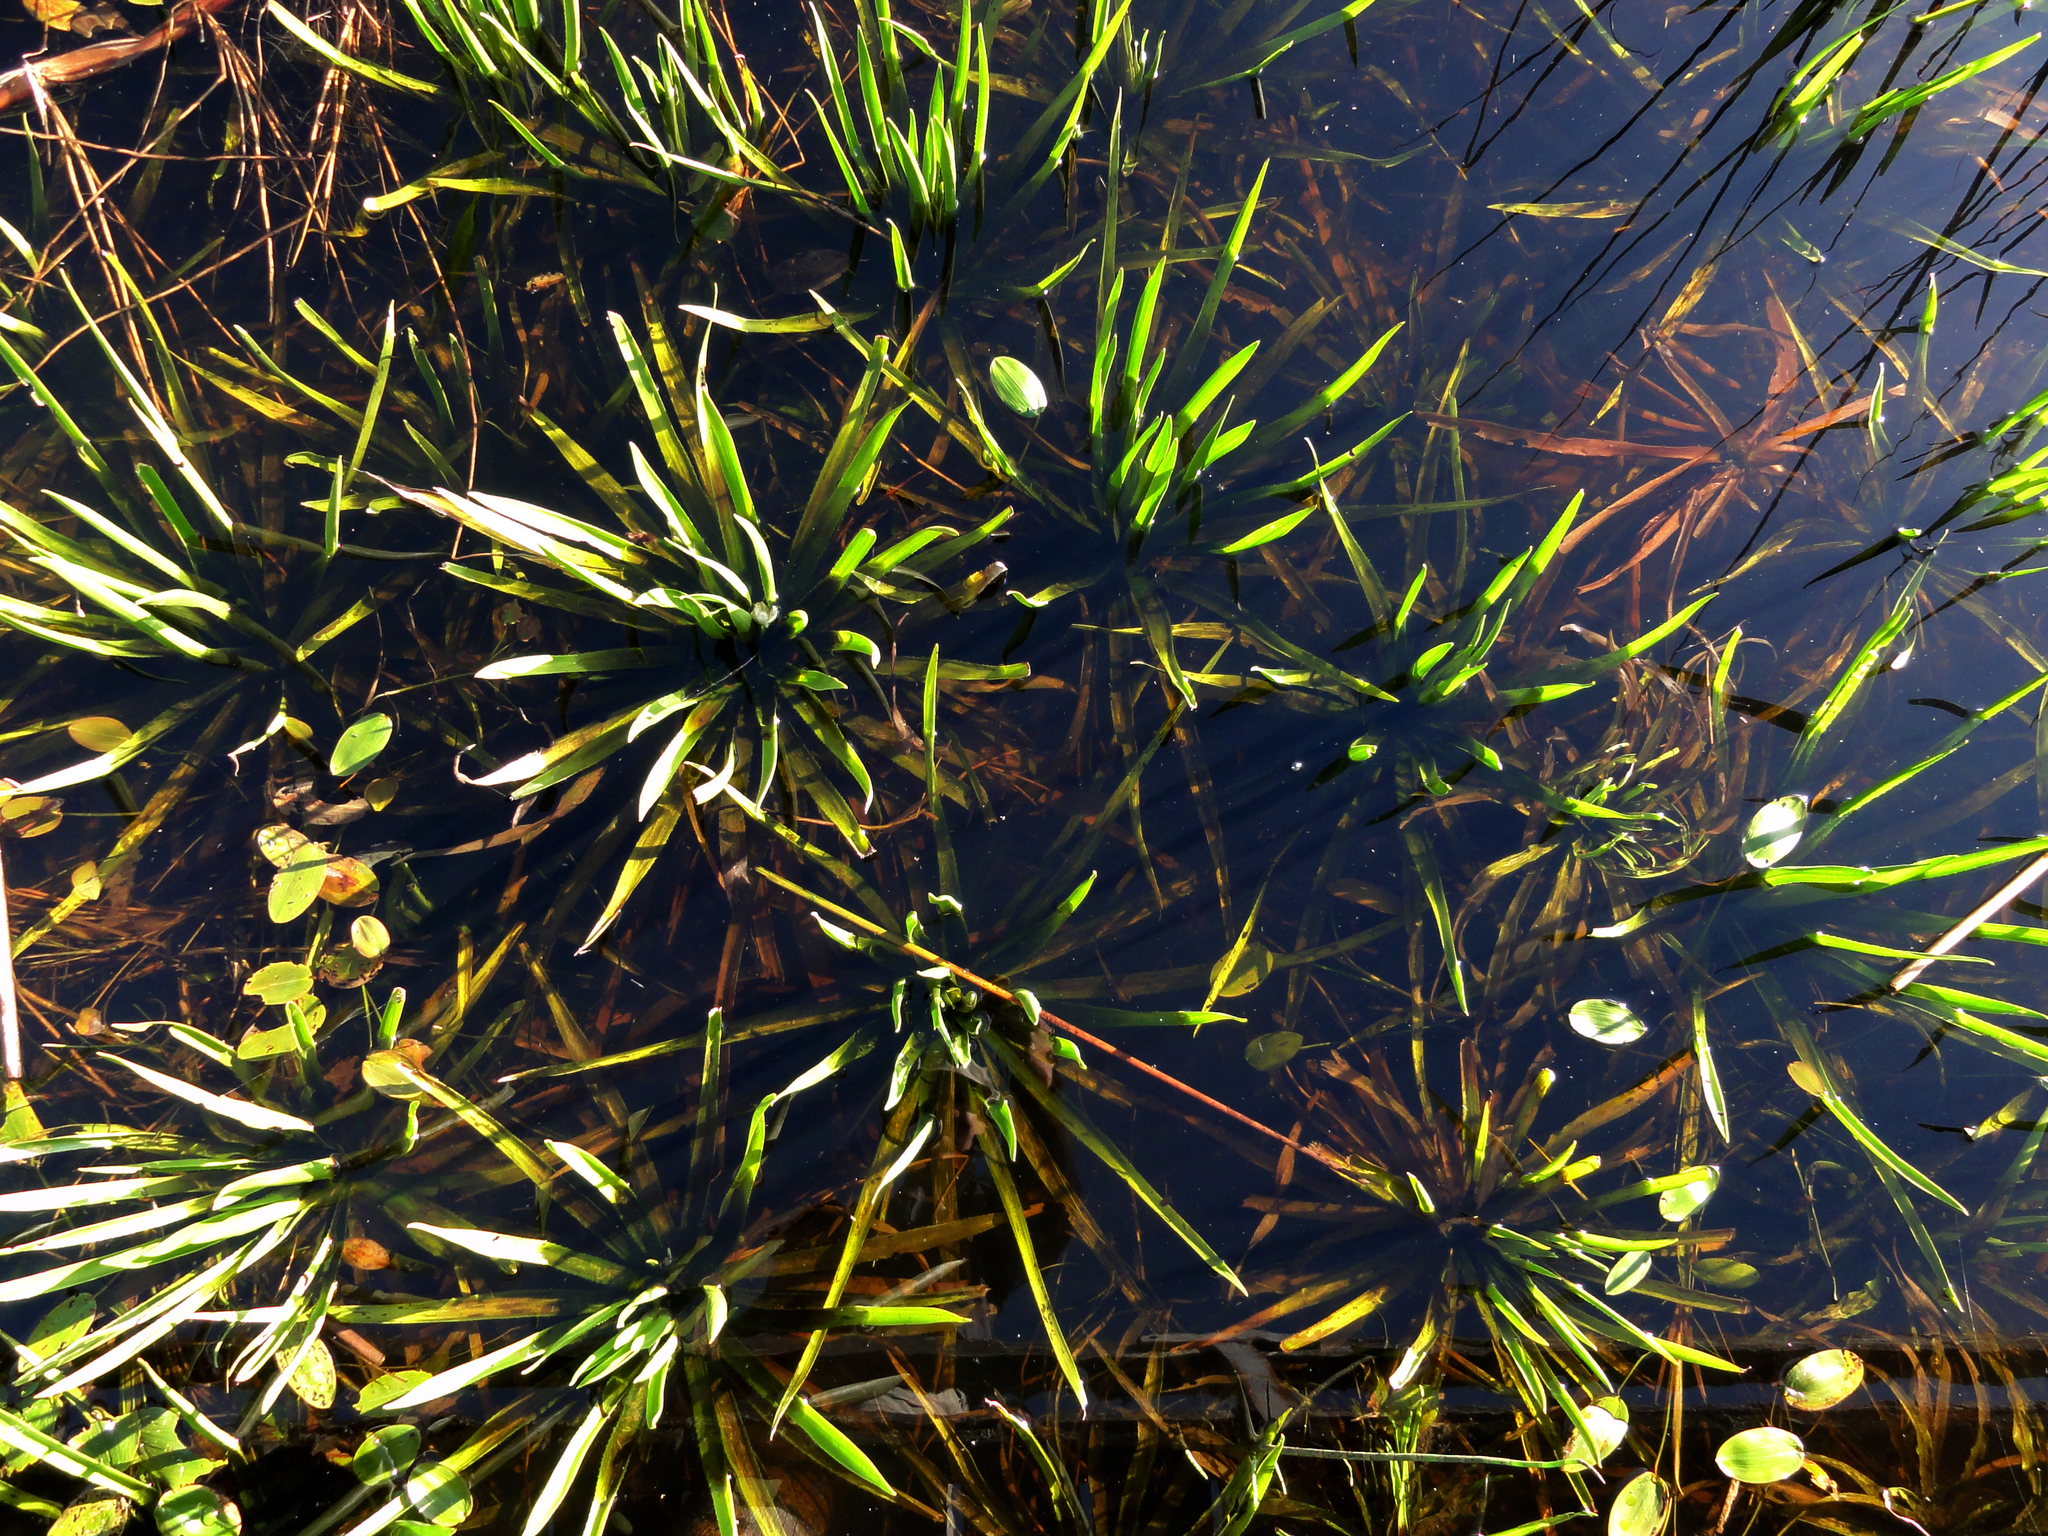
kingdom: Plantae
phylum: Tracheophyta
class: Liliopsida
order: Alismatales
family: Hydrocharitaceae
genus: Stratiotes
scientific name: Stratiotes aloides
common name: Water-soldier
